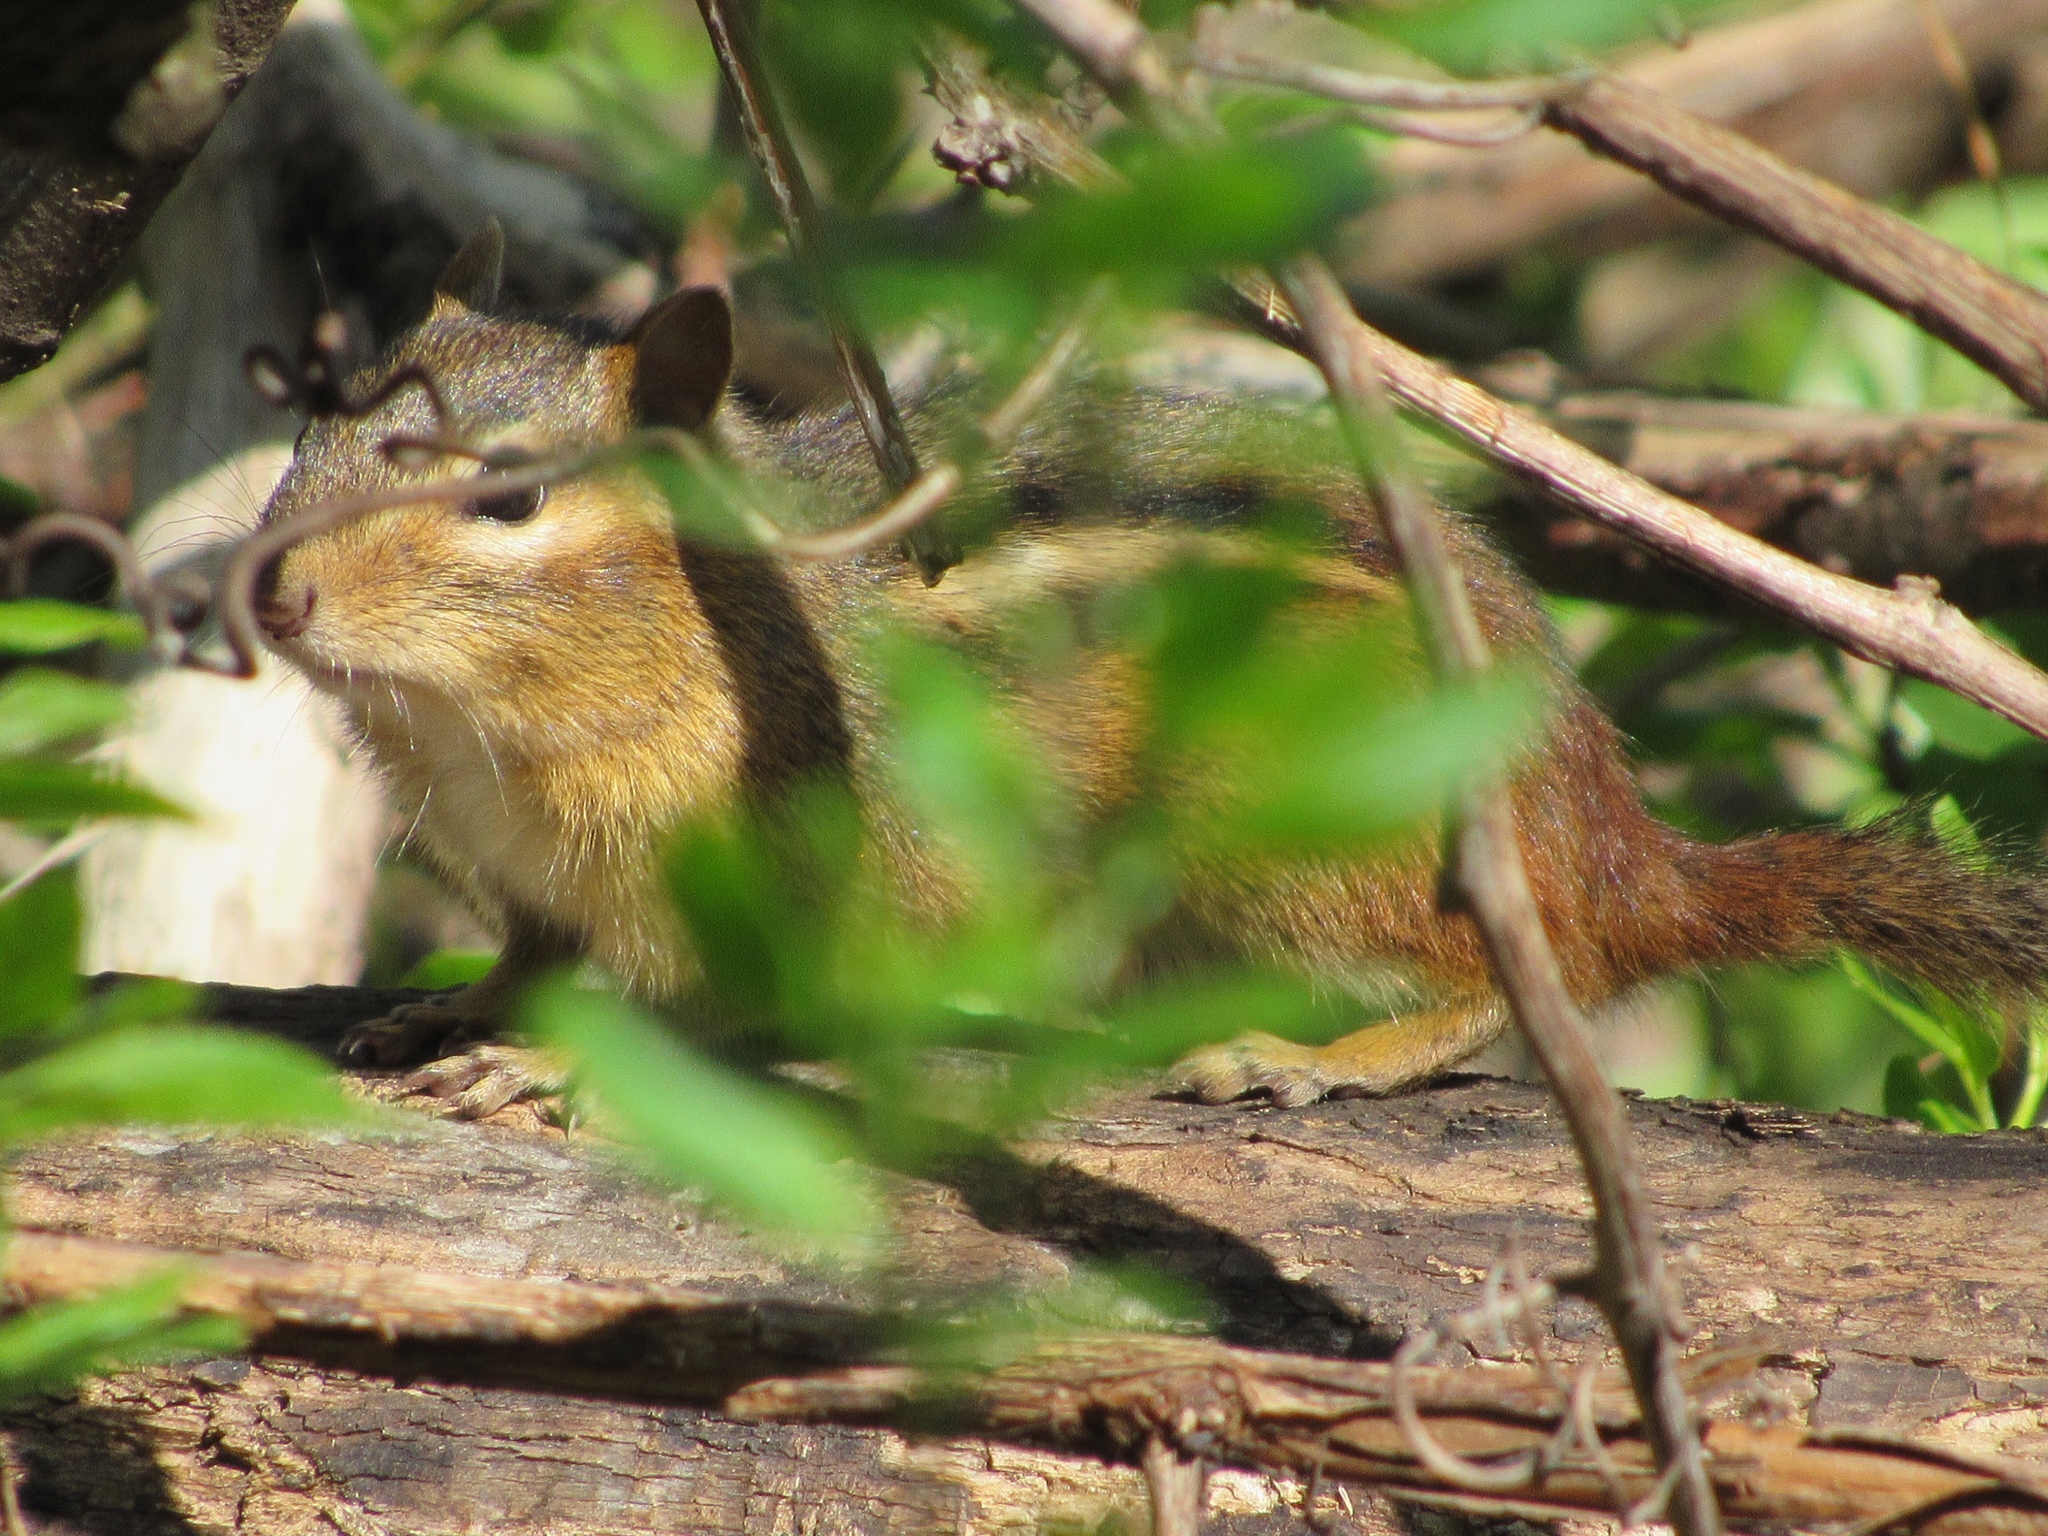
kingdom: Animalia
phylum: Chordata
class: Mammalia
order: Rodentia
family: Sciuridae
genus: Tamias
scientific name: Tamias striatus
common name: Eastern chipmunk
